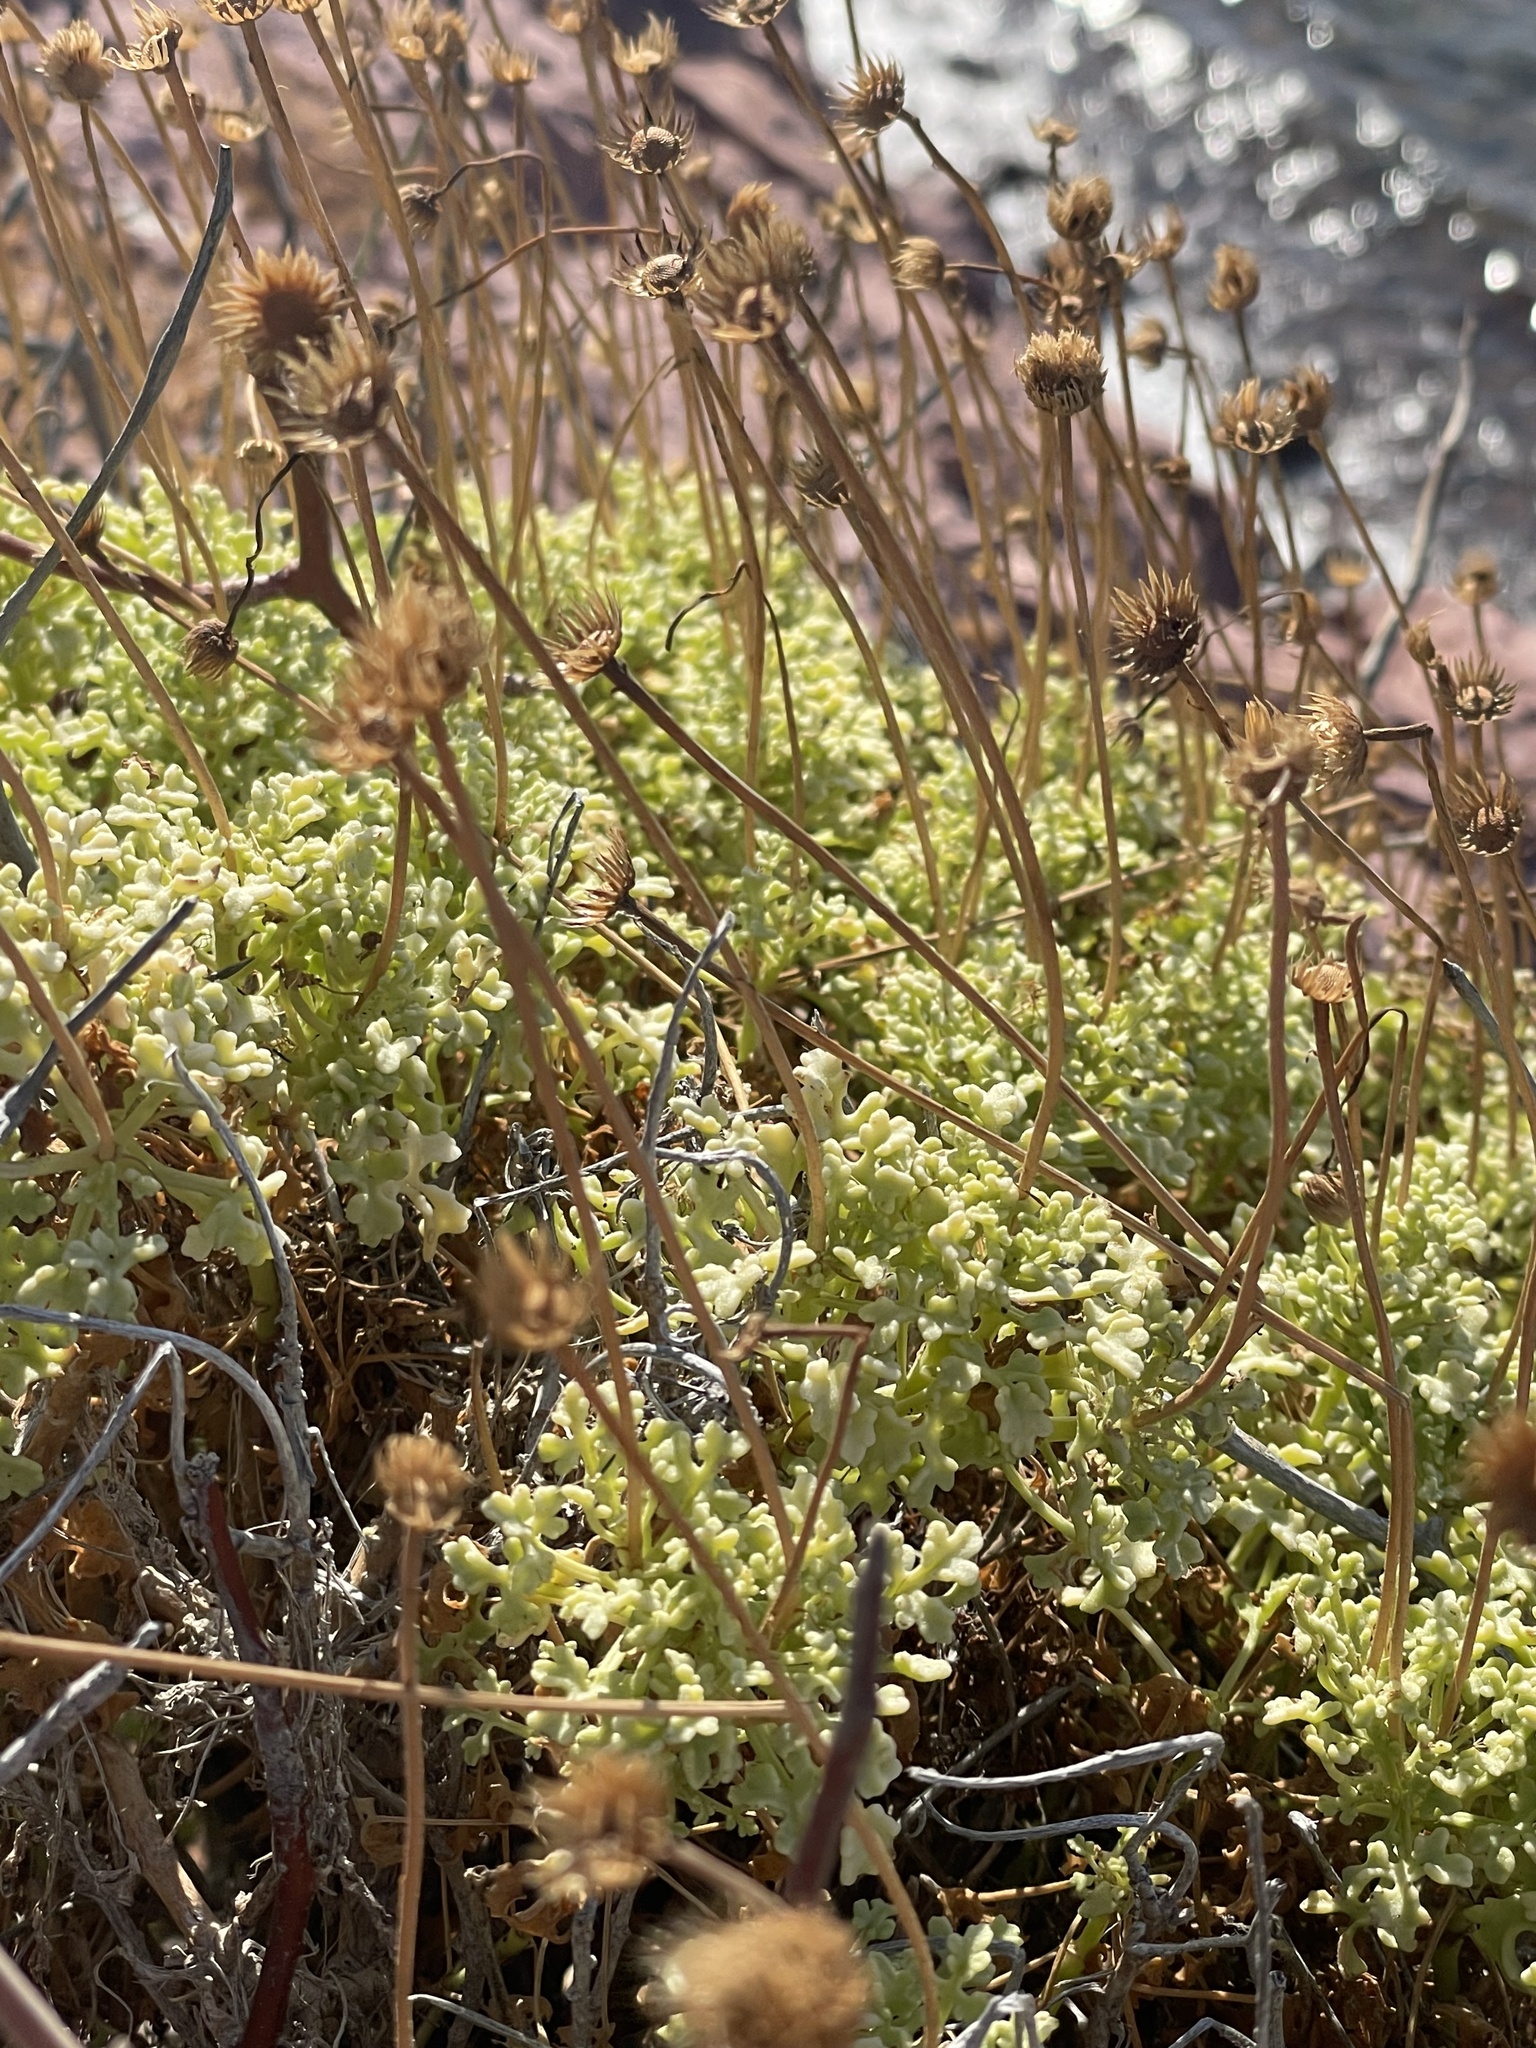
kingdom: Plantae
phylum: Tracheophyta
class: Magnoliopsida
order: Asterales
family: Asteraceae
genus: Hofmeisteria
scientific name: Hofmeisteria fasciculata
